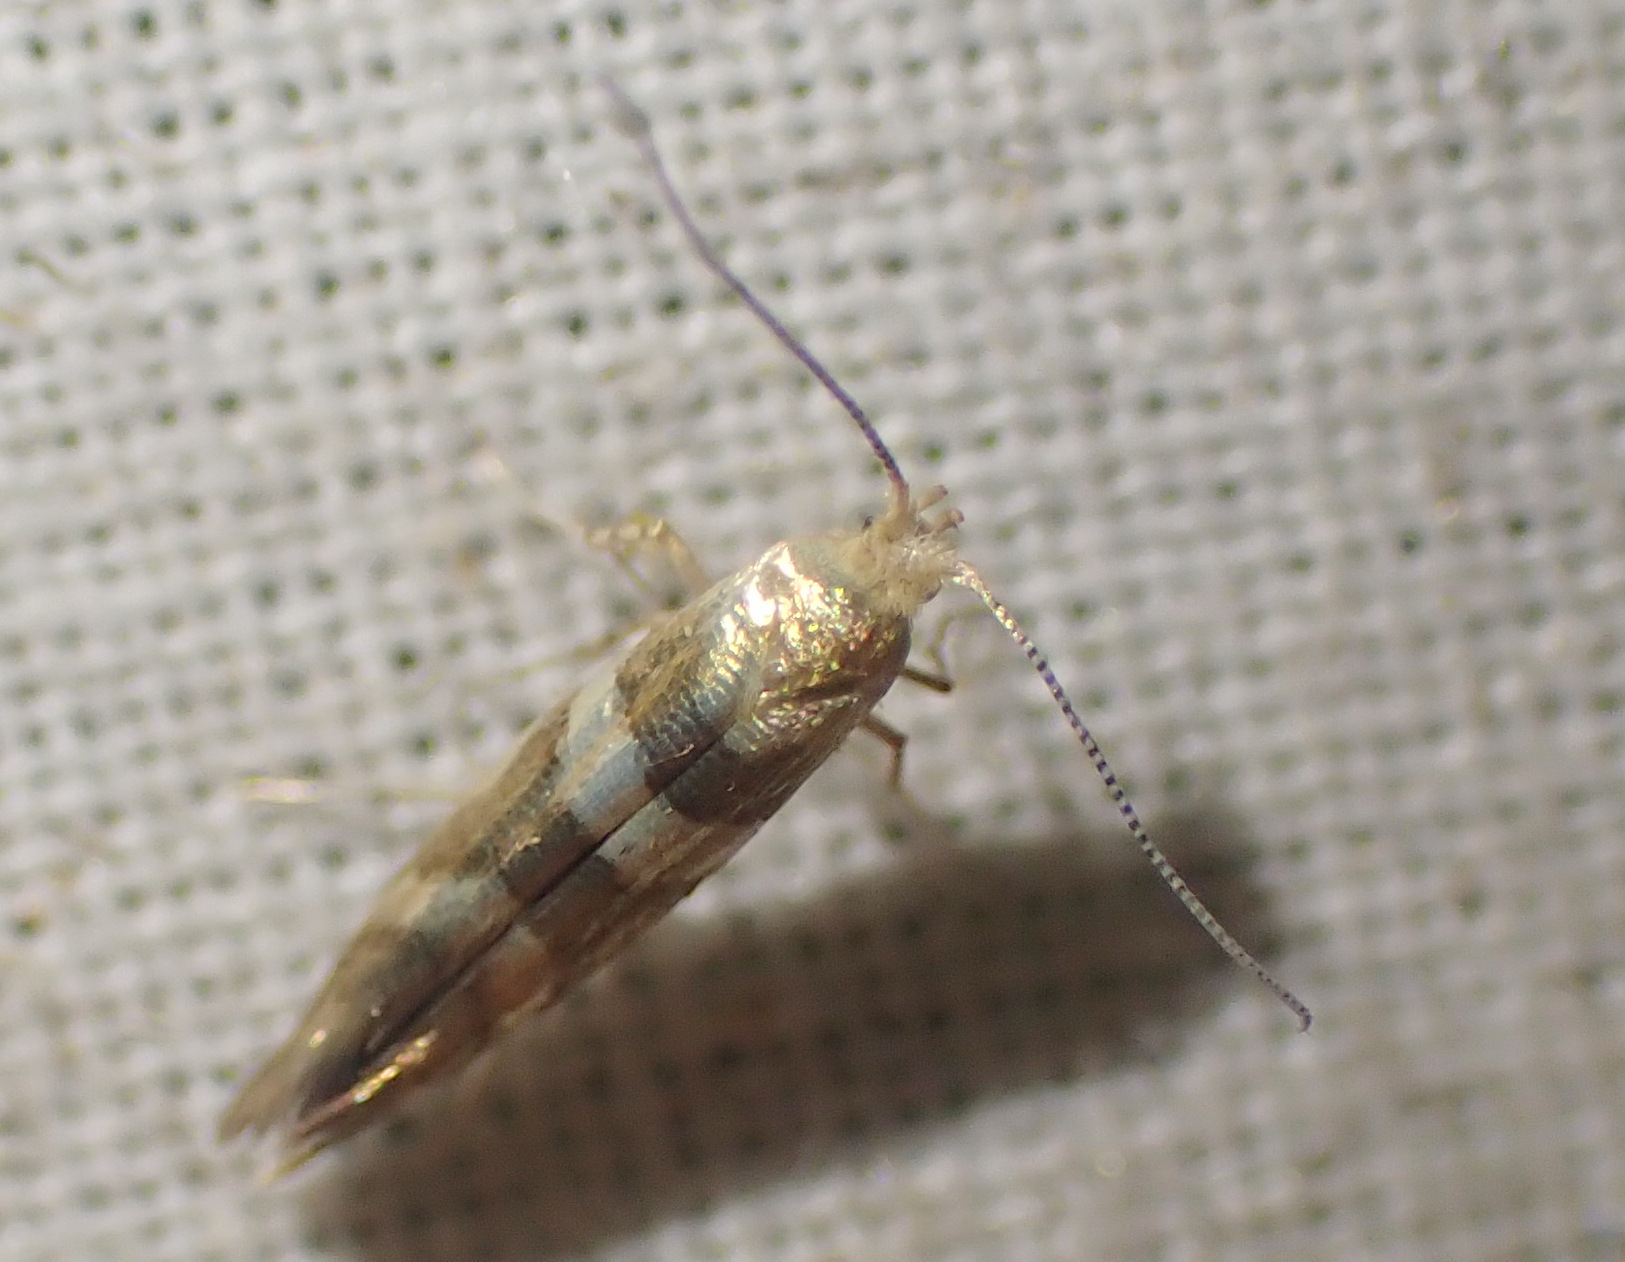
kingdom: Animalia
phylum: Arthropoda
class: Insecta
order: Lepidoptera
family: Argyresthiidae
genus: Argyresthia
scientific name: Argyresthia goedartella
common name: Golden argent
